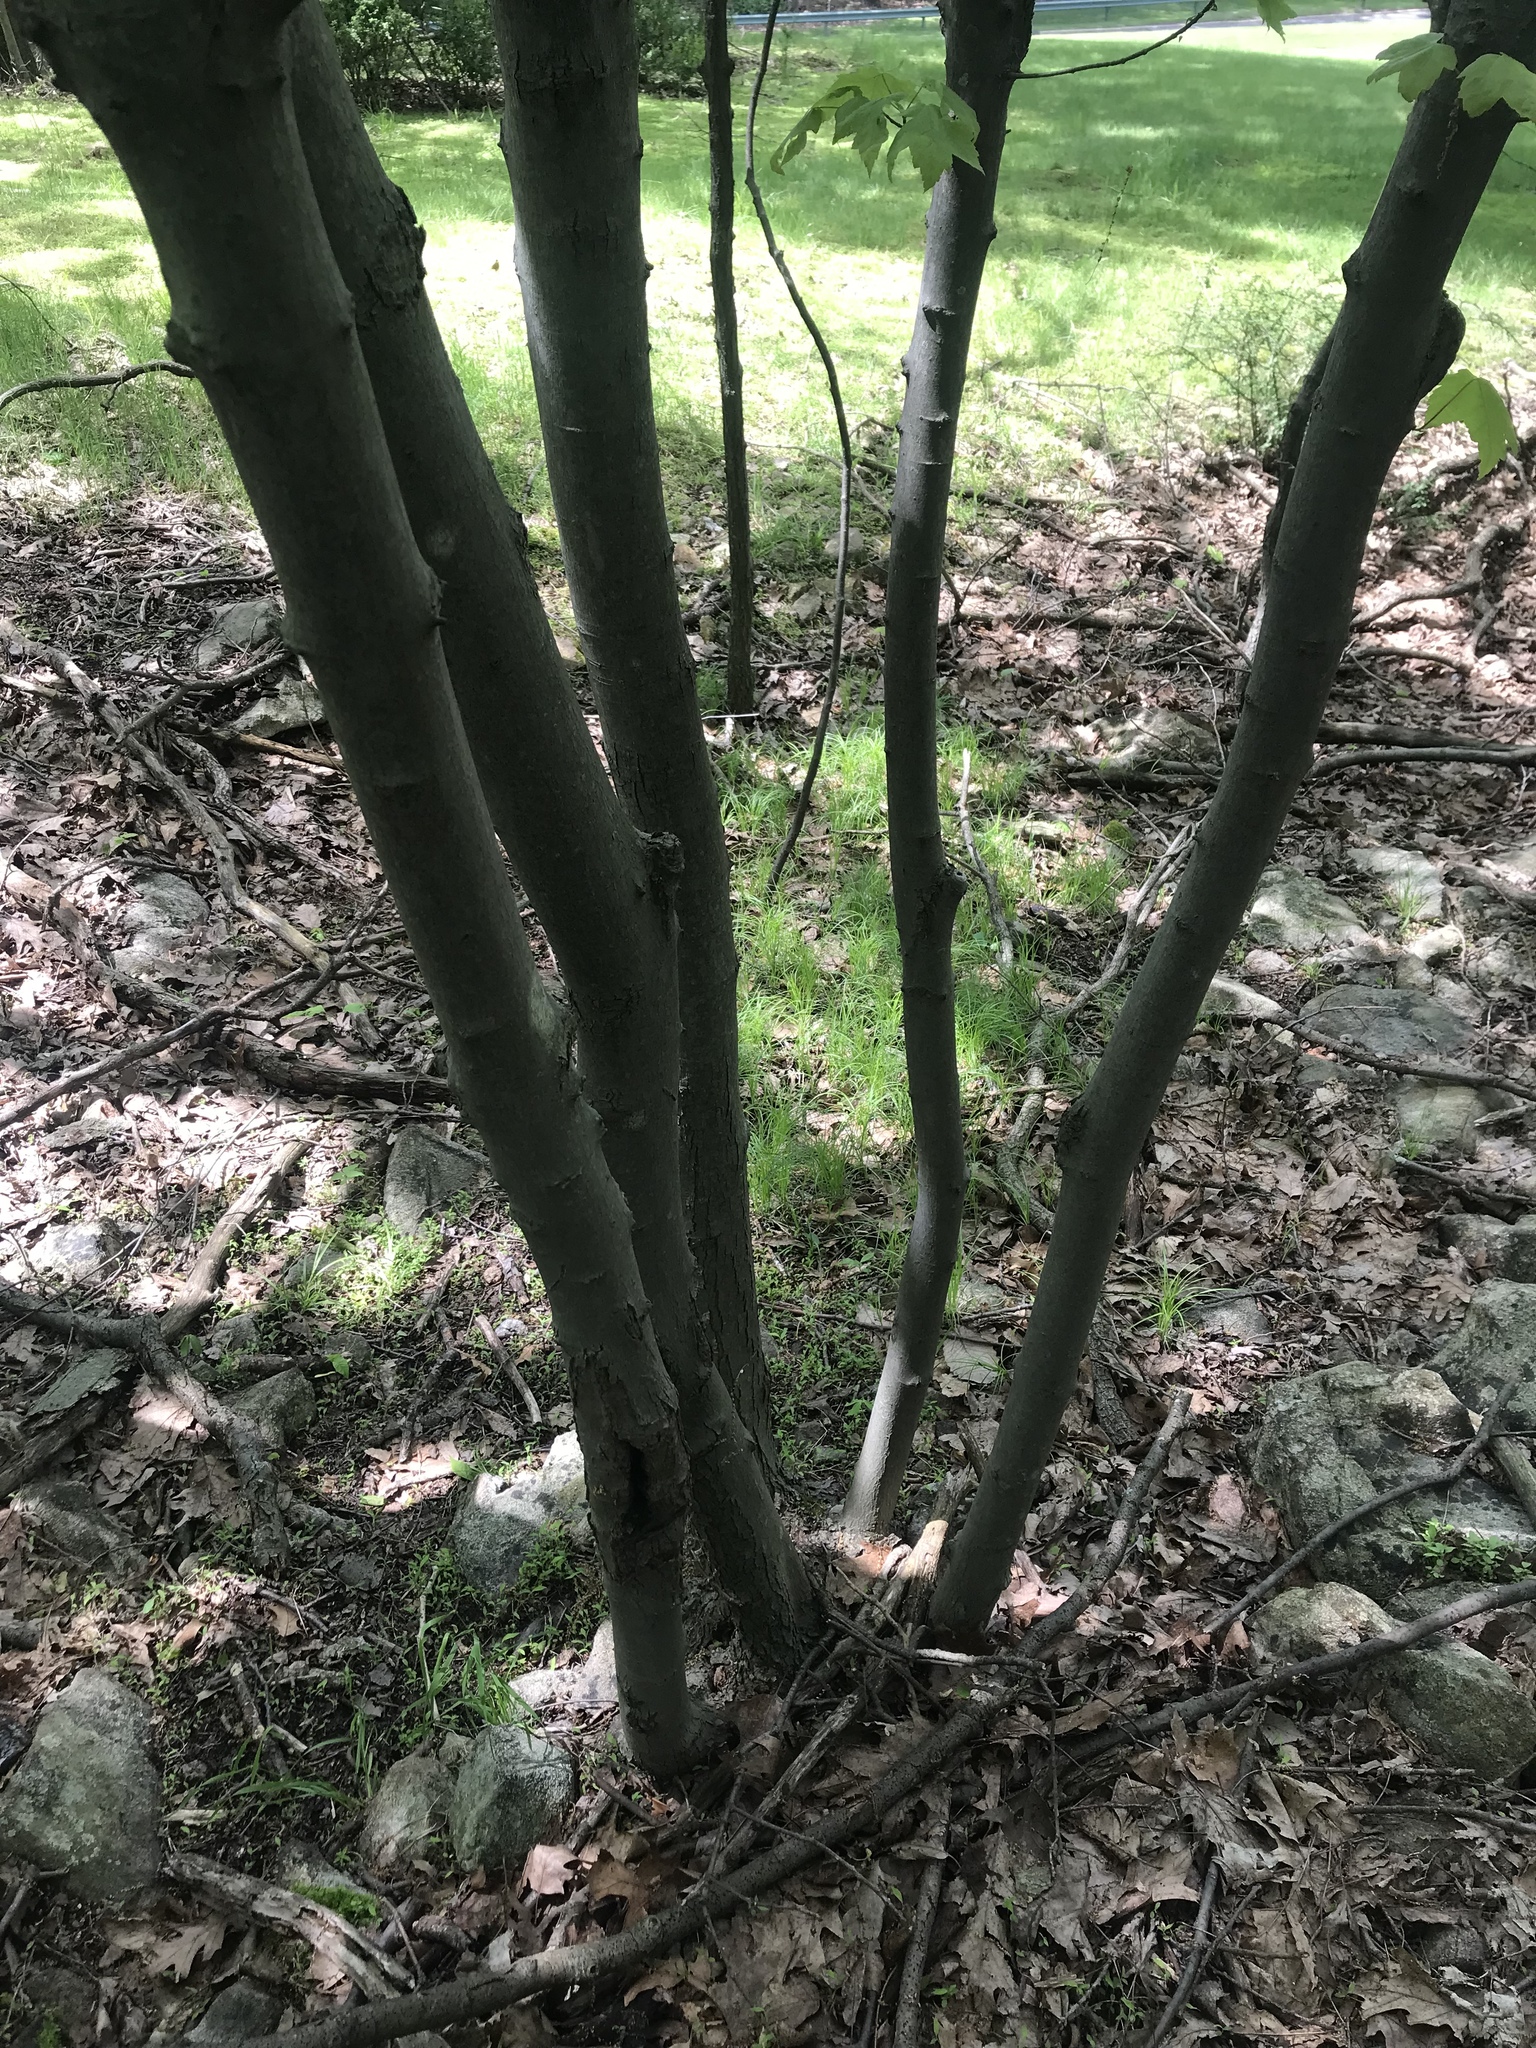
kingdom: Plantae
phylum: Tracheophyta
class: Magnoliopsida
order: Sapindales
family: Sapindaceae
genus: Acer
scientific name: Acer rubrum
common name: Red maple
